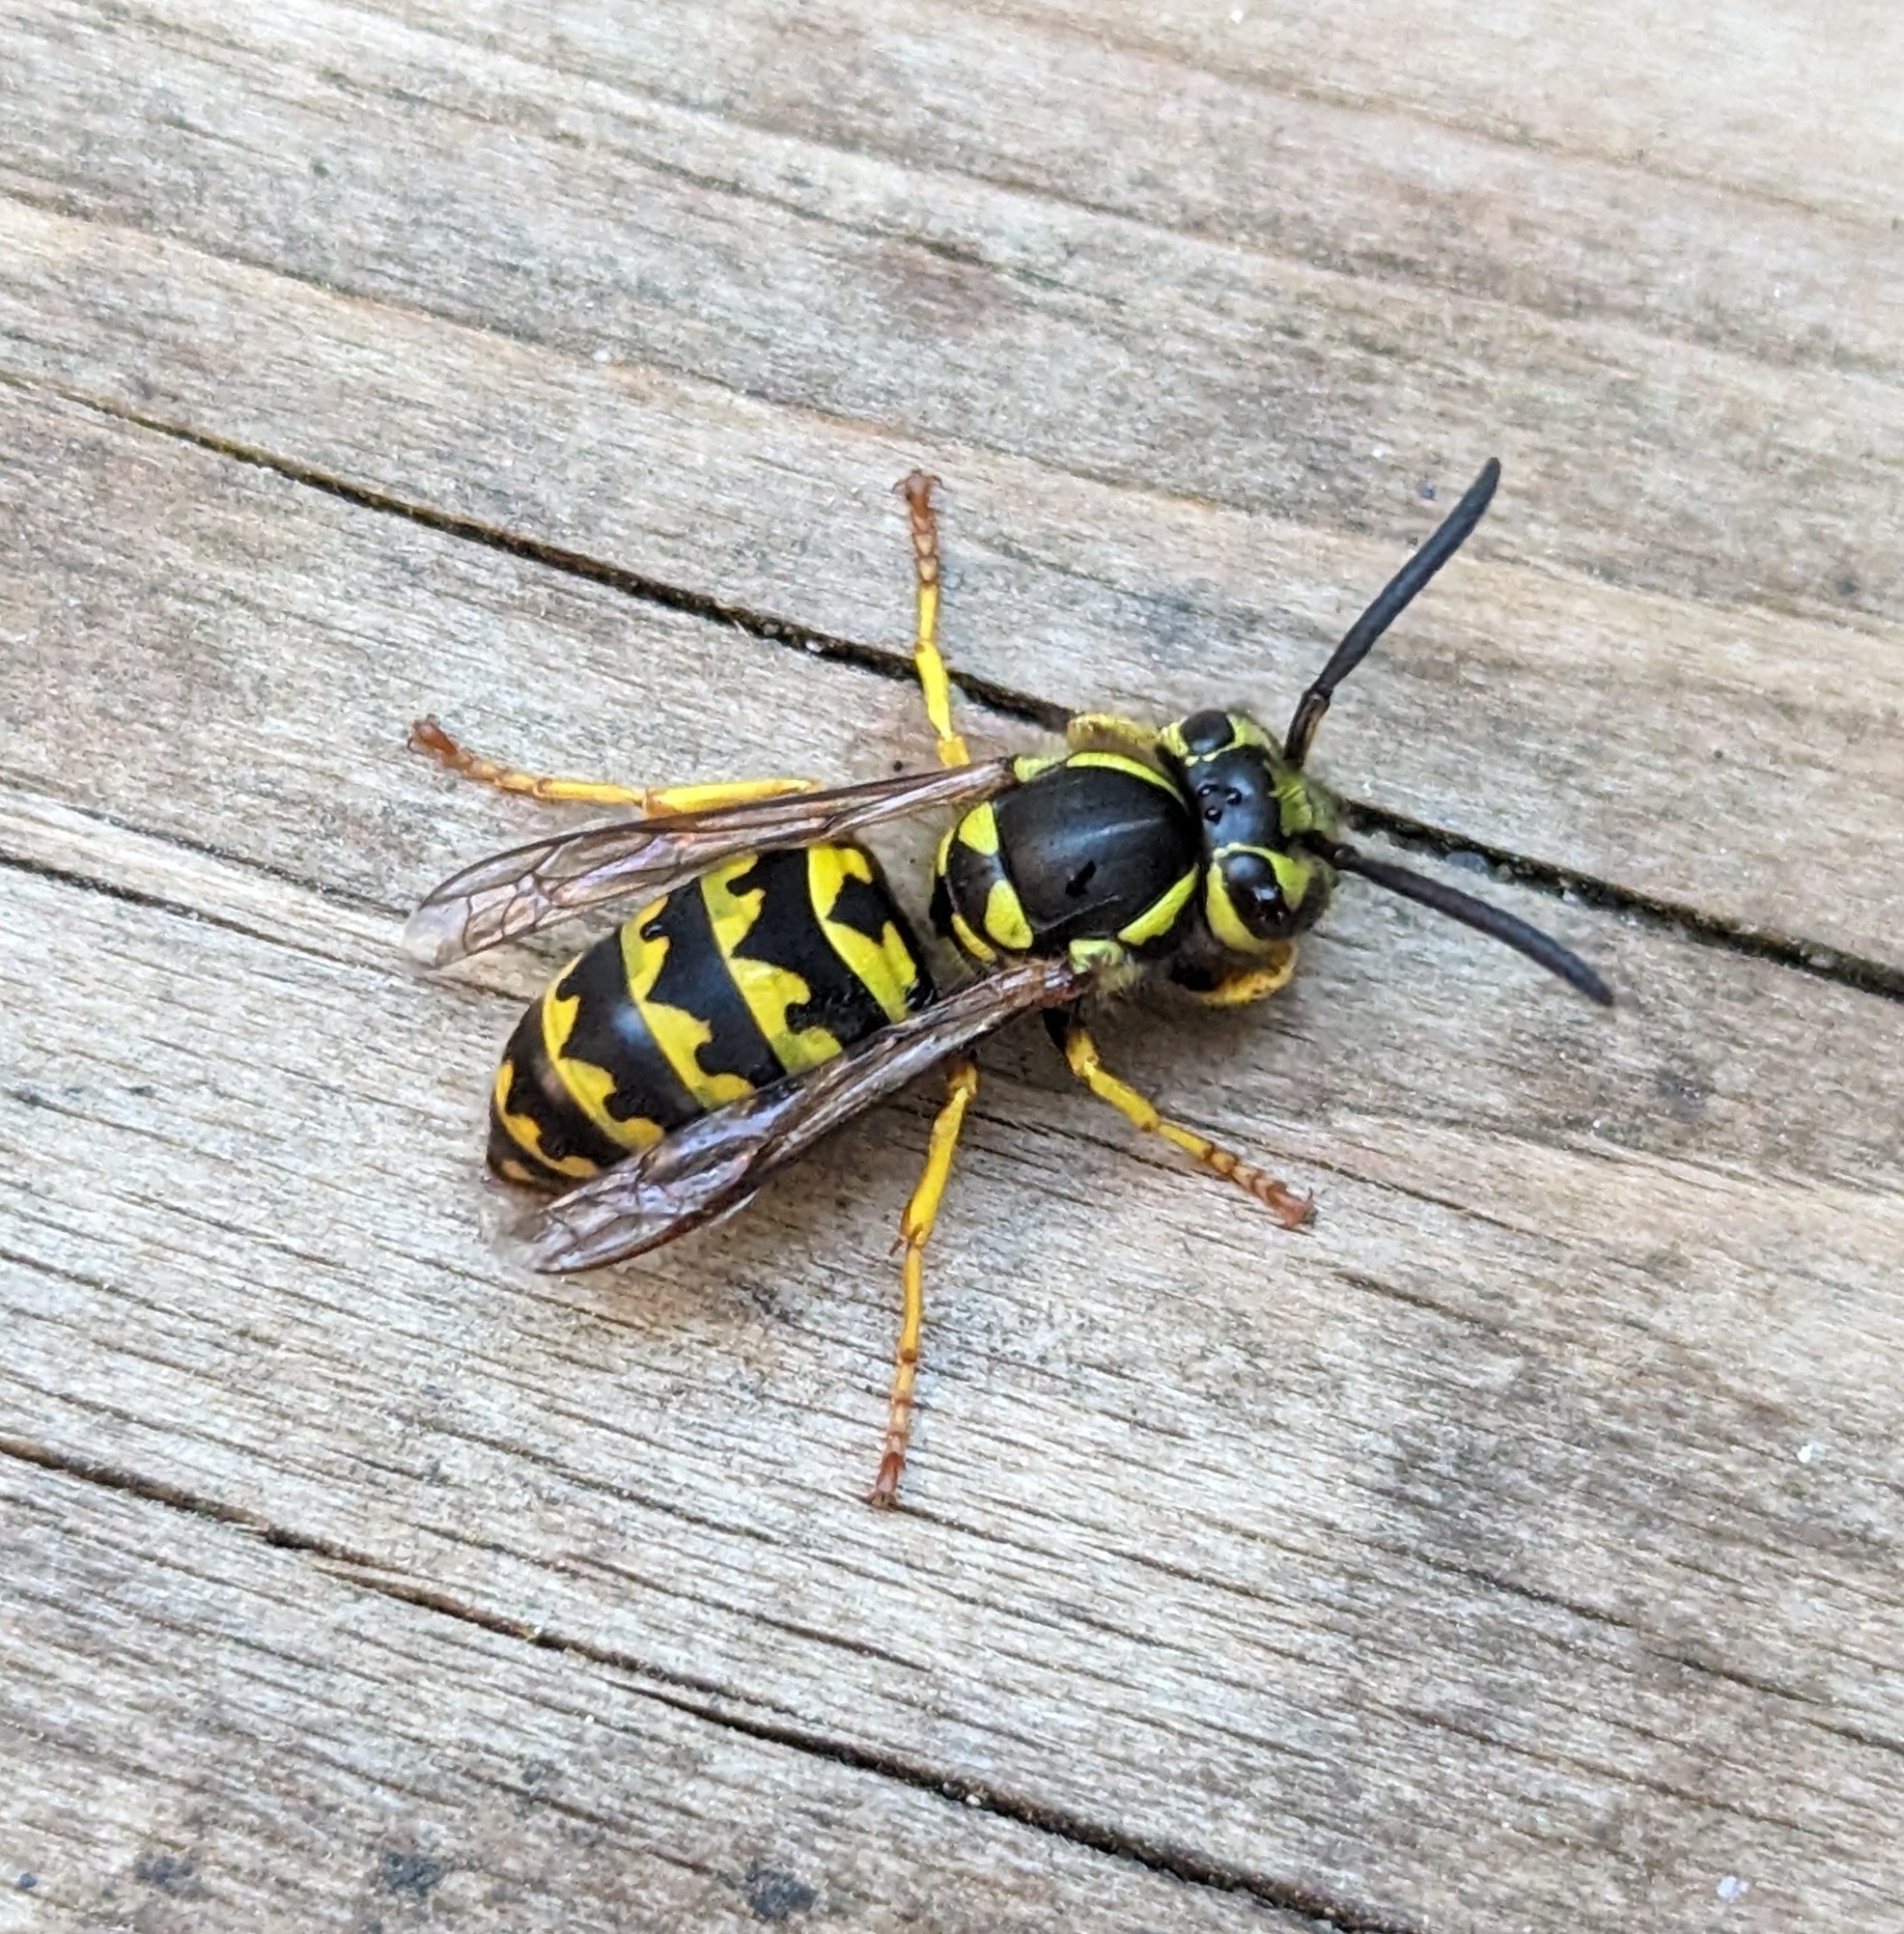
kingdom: Animalia
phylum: Arthropoda
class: Insecta
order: Hymenoptera
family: Vespidae
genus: Vespula
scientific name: Vespula pensylvanica
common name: Western yellowjacket
